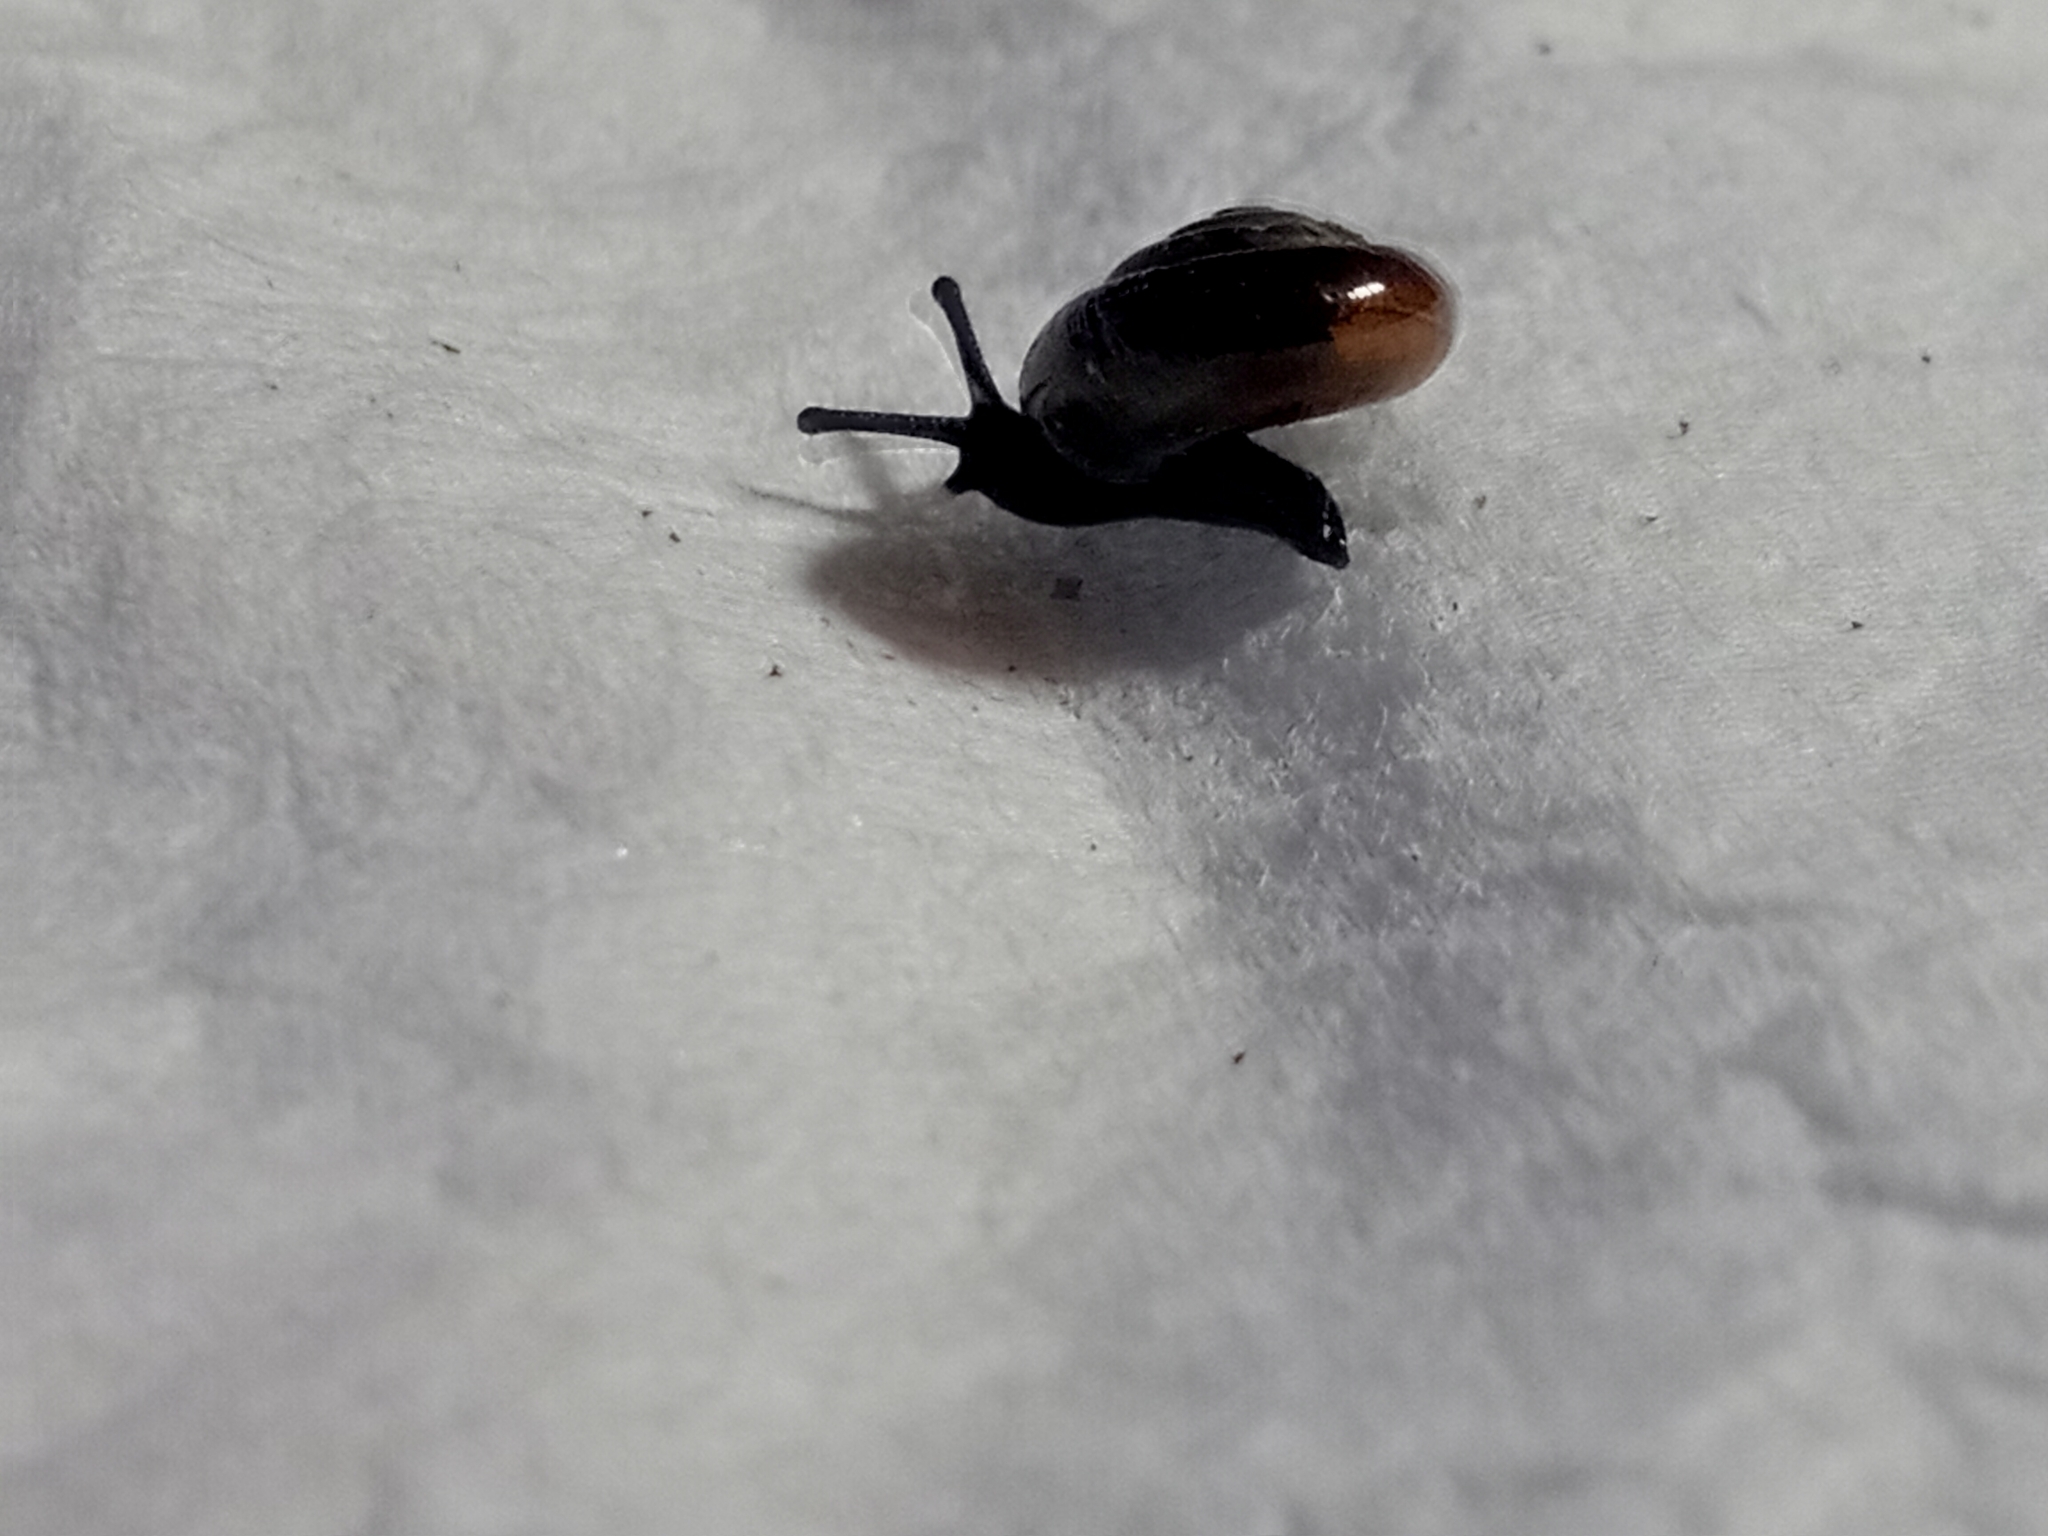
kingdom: Animalia
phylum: Mollusca
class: Gastropoda
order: Stylommatophora
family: Gastrodontidae
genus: Zonitoides
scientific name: Zonitoides nitidus
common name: Shiny glass snail
